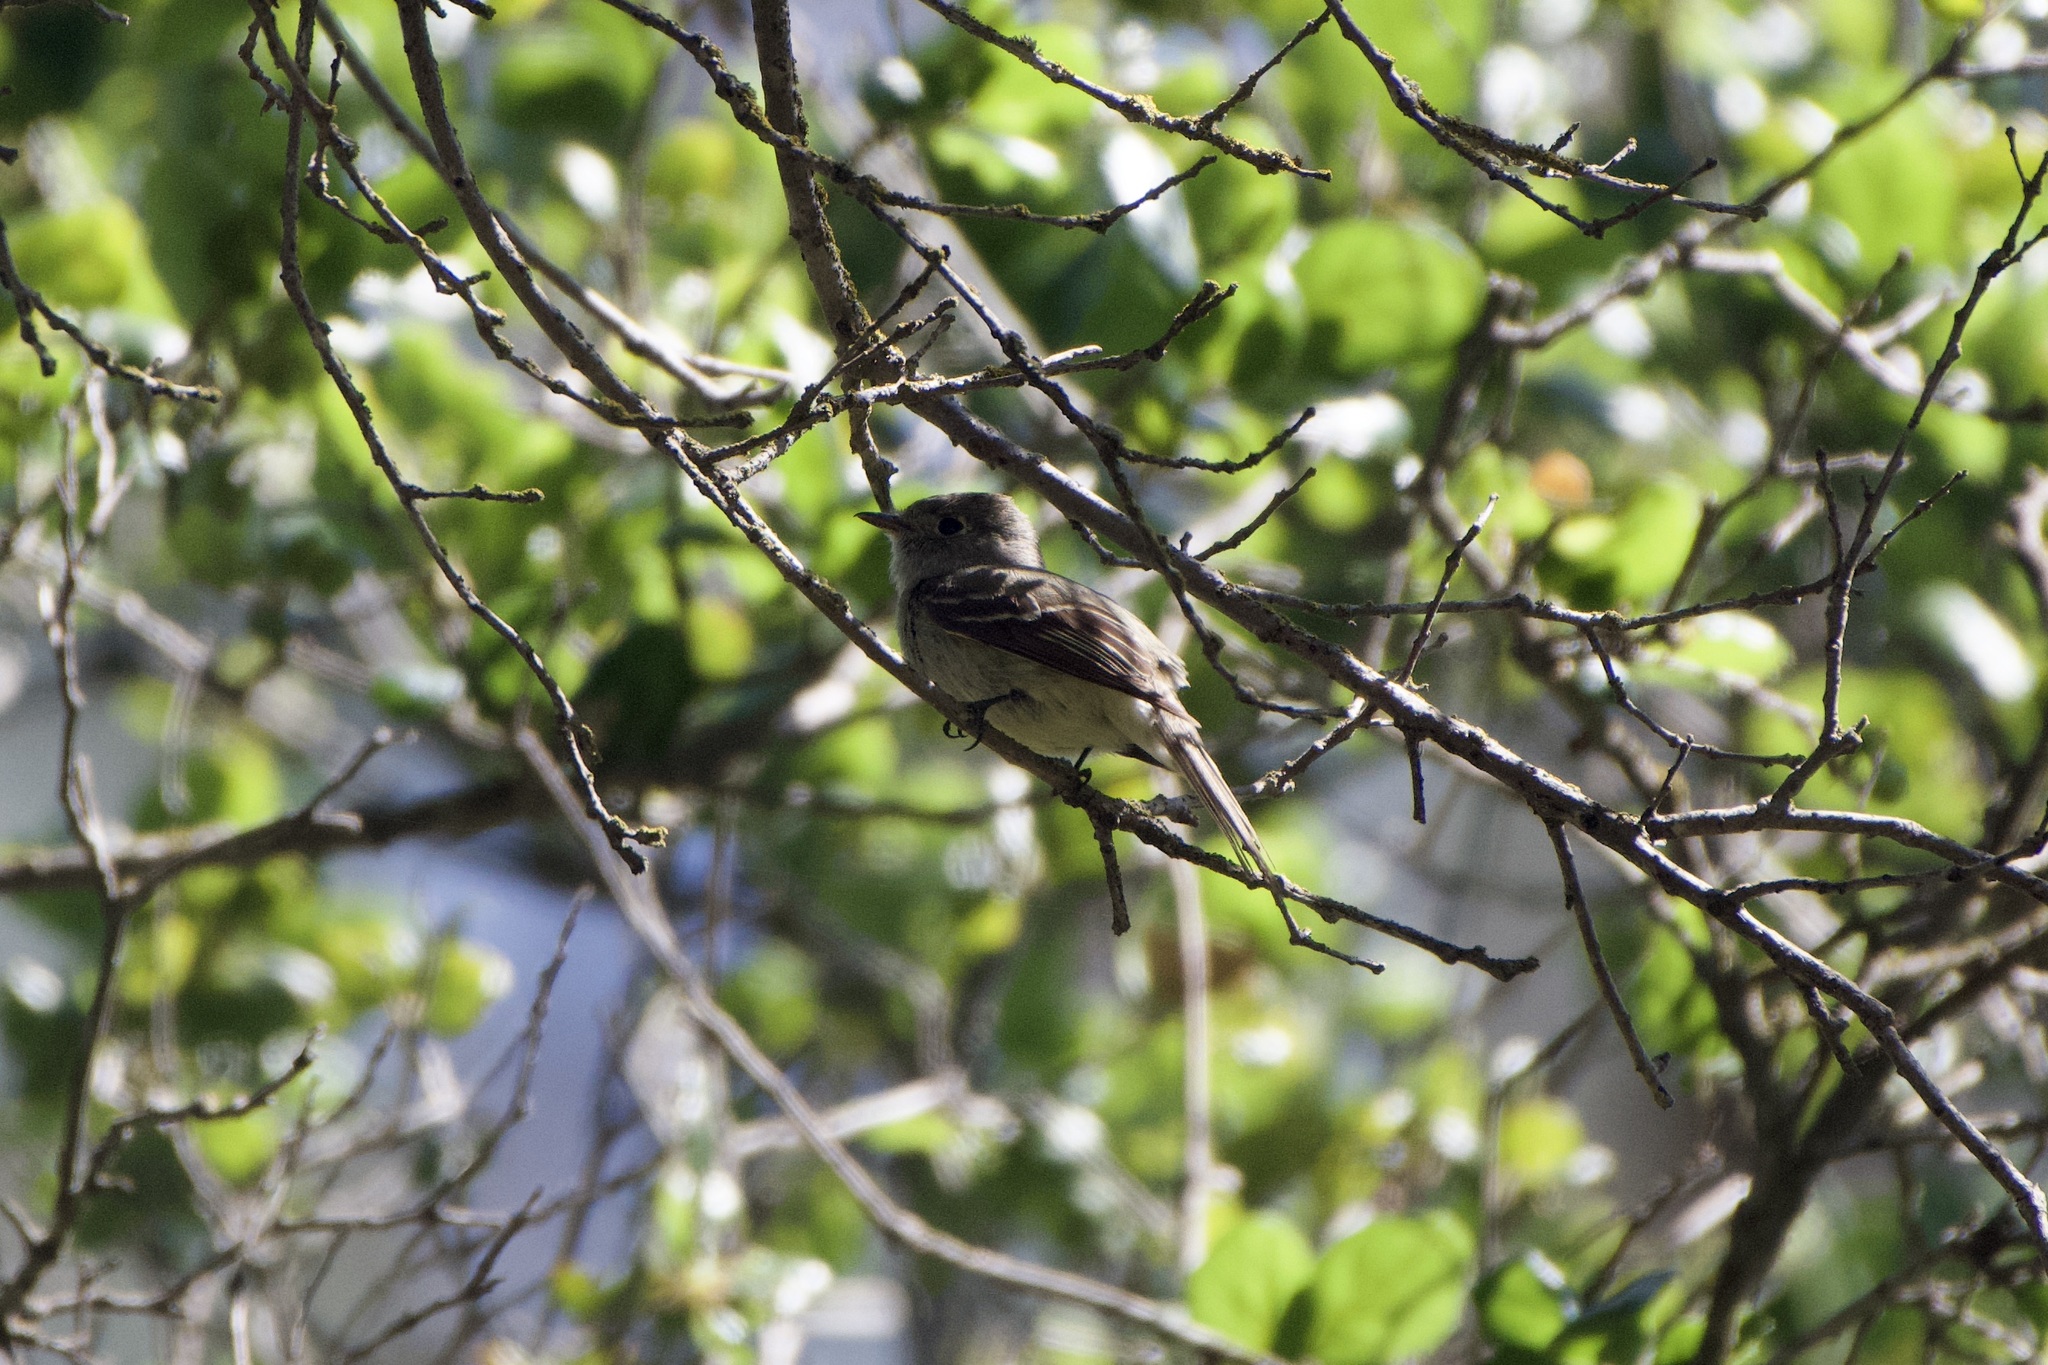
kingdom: Animalia
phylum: Chordata
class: Aves
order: Passeriformes
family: Tyrannidae
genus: Empidonax
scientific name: Empidonax hammondii
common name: Hammond's flycatcher
